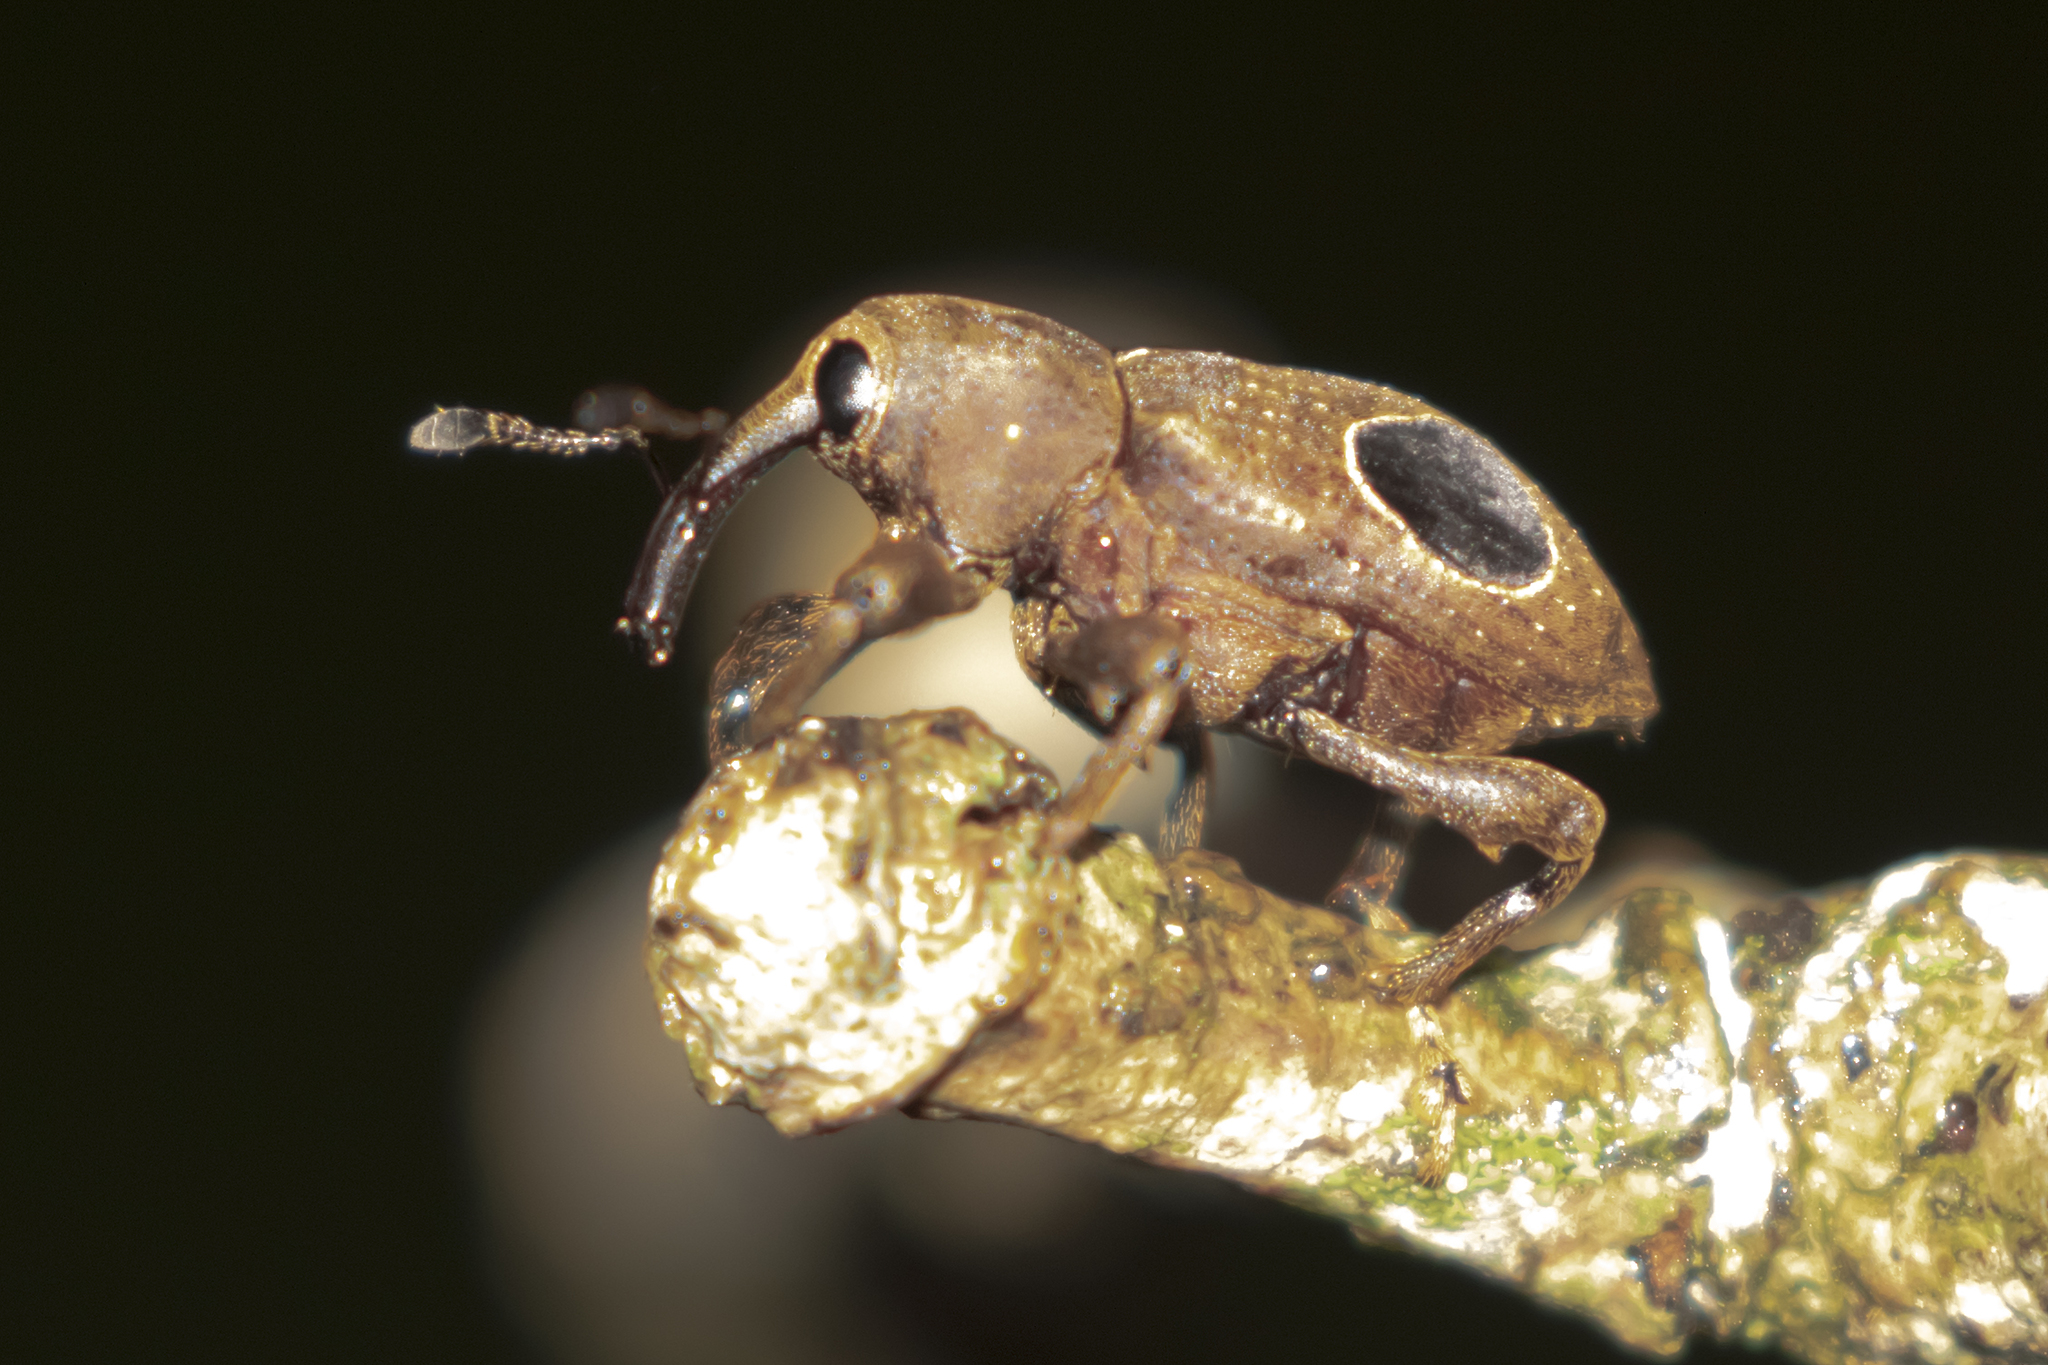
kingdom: Animalia
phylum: Arthropoda
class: Insecta
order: Coleoptera
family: Curculionidae
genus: Heilus
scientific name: Heilus faldermanni
